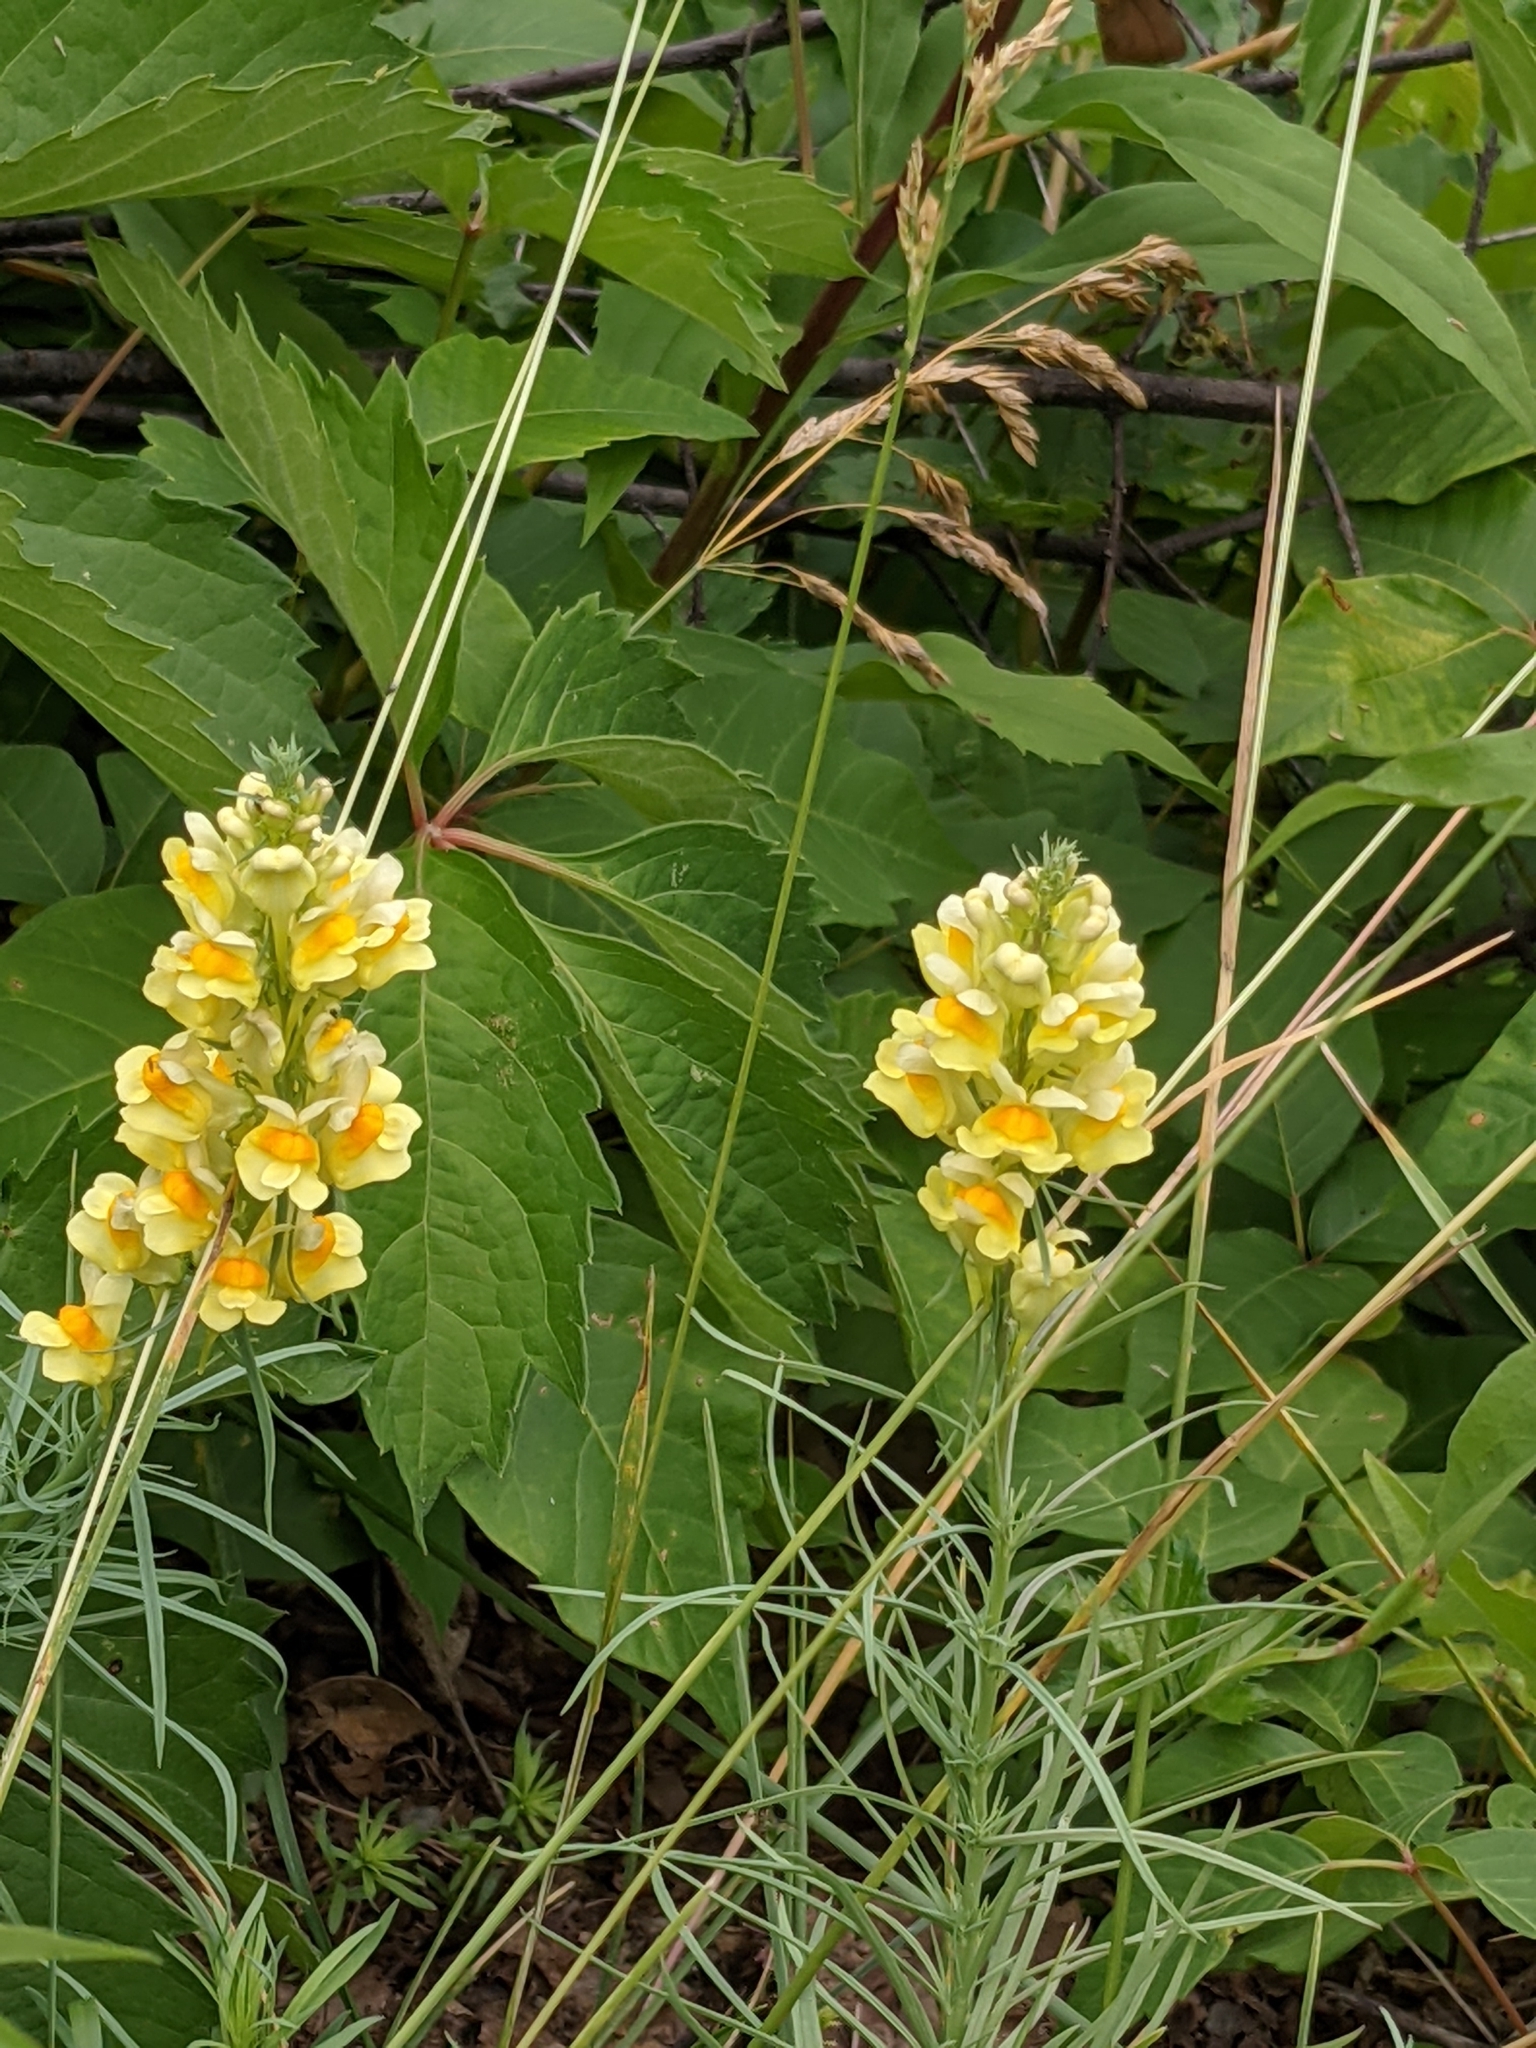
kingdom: Plantae
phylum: Tracheophyta
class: Magnoliopsida
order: Lamiales
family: Plantaginaceae
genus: Linaria
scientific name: Linaria vulgaris
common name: Butter and eggs
